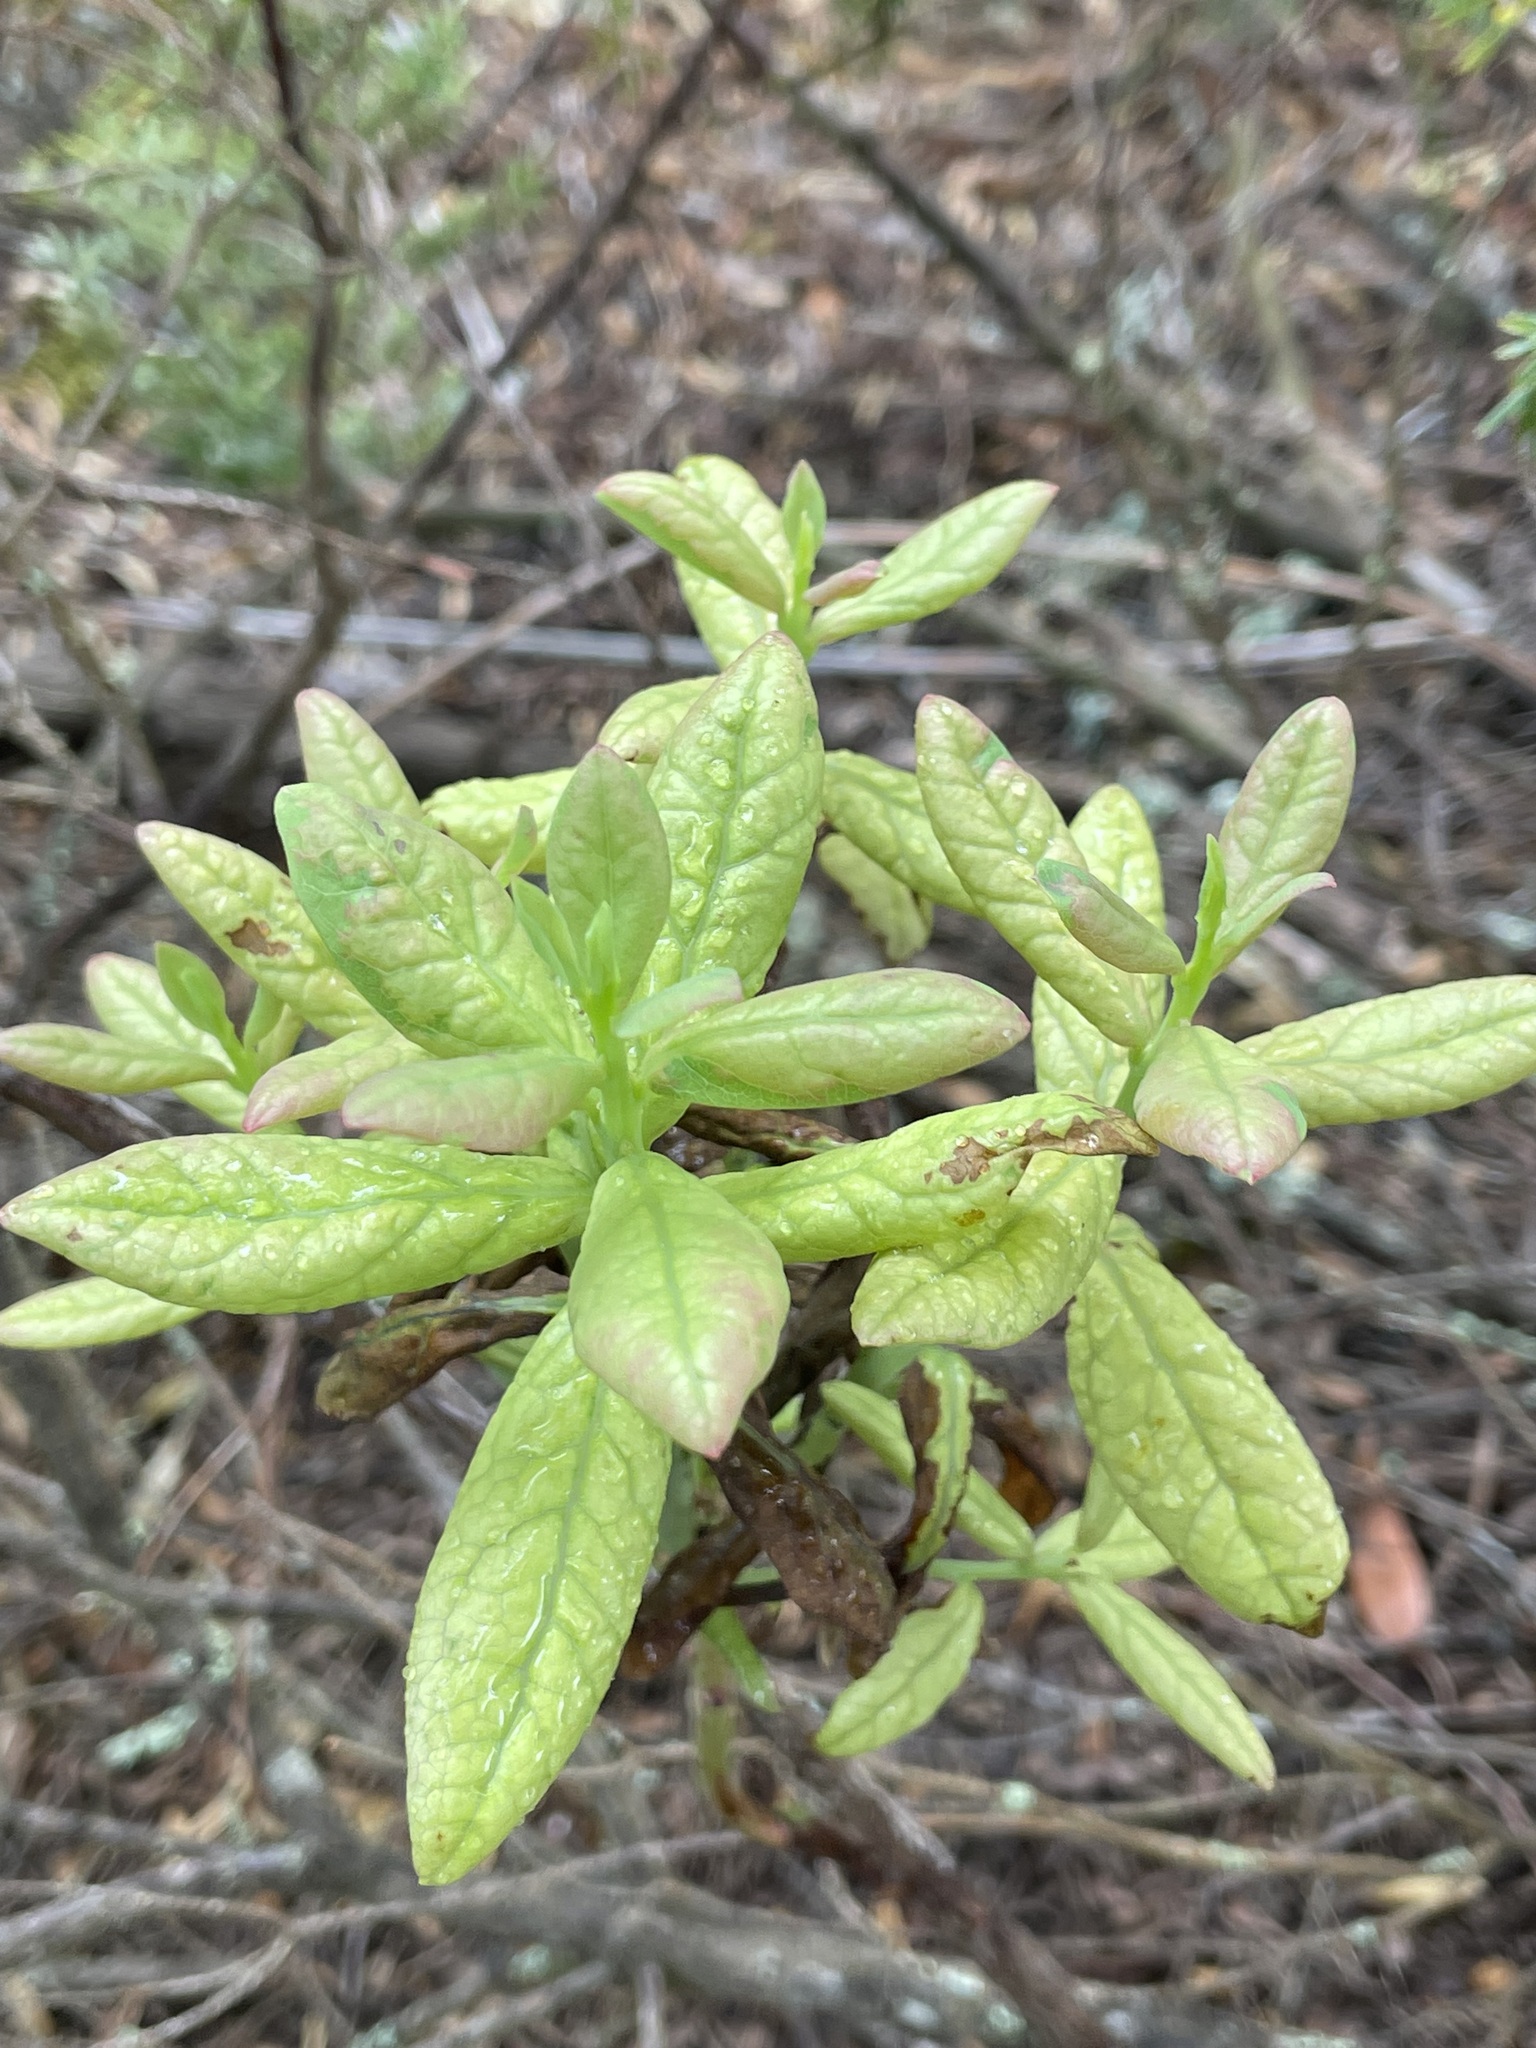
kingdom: Plantae
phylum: Tracheophyta
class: Magnoliopsida
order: Ericales
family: Ericaceae
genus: Vaccinium
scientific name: Vaccinium calycinum
